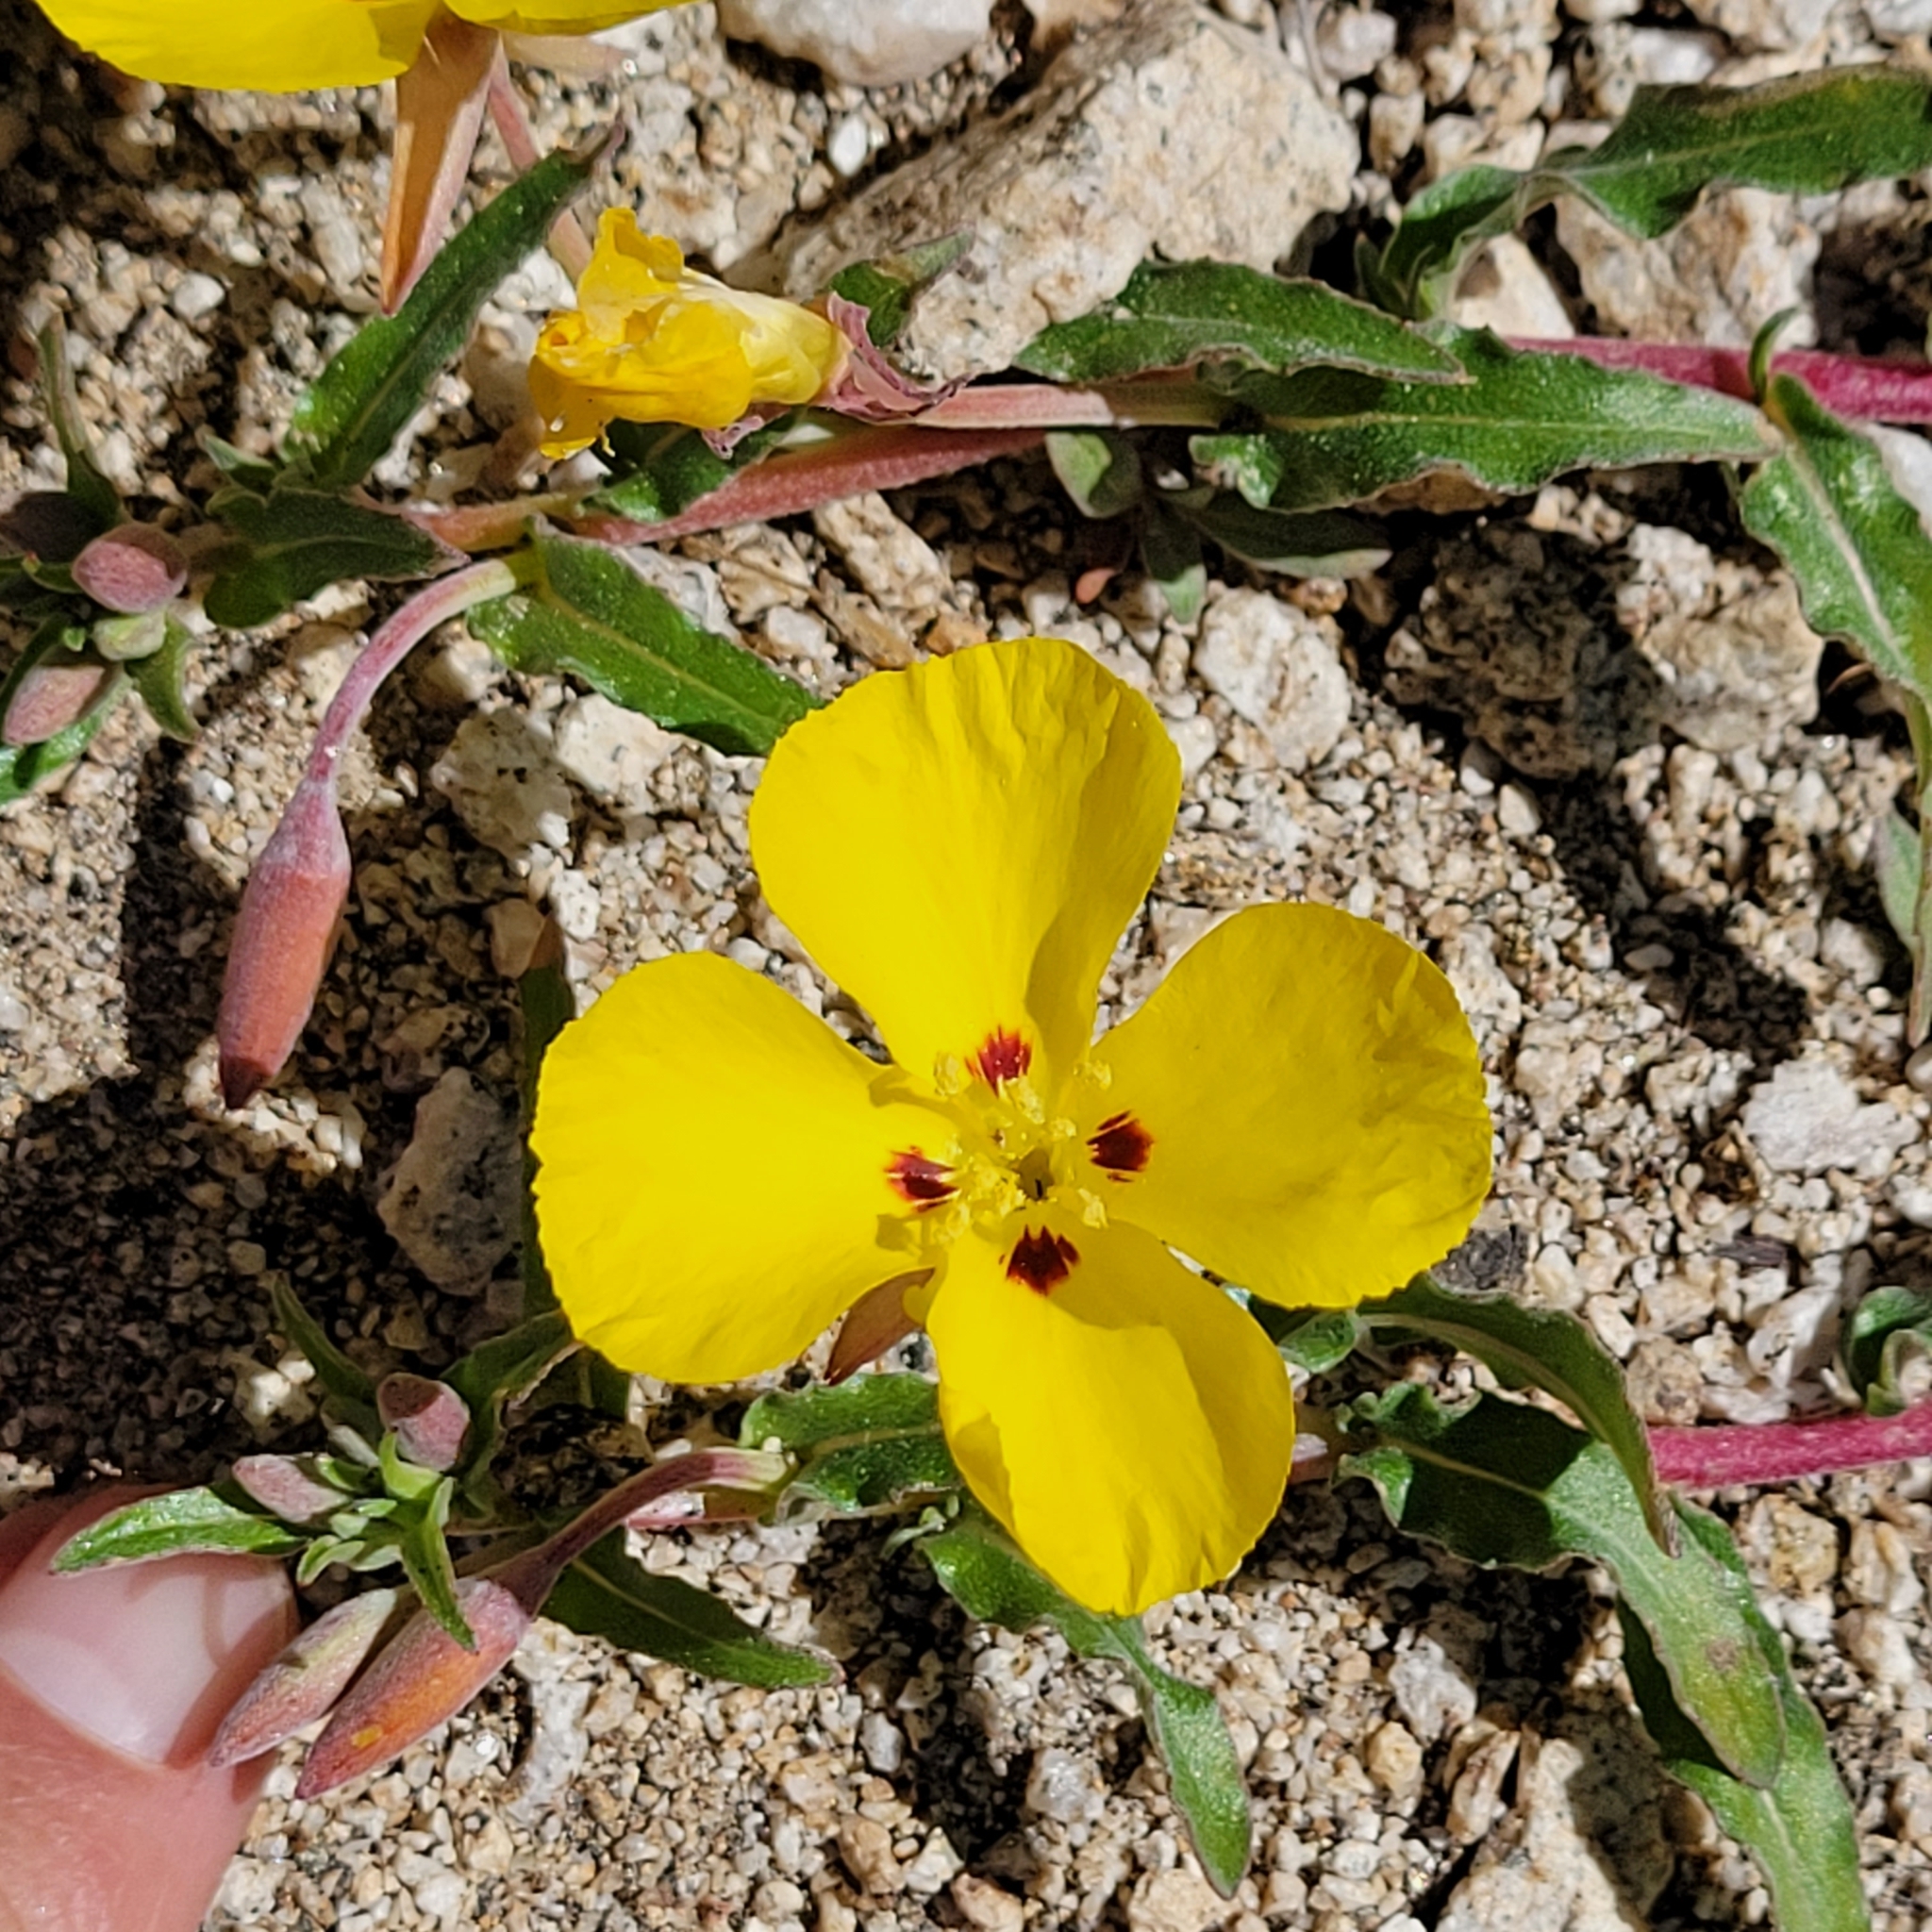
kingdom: Plantae
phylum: Tracheophyta
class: Magnoliopsida
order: Myrtales
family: Onagraceae
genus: Camissoniopsis
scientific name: Camissoniopsis bistorta
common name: Southern suncup
